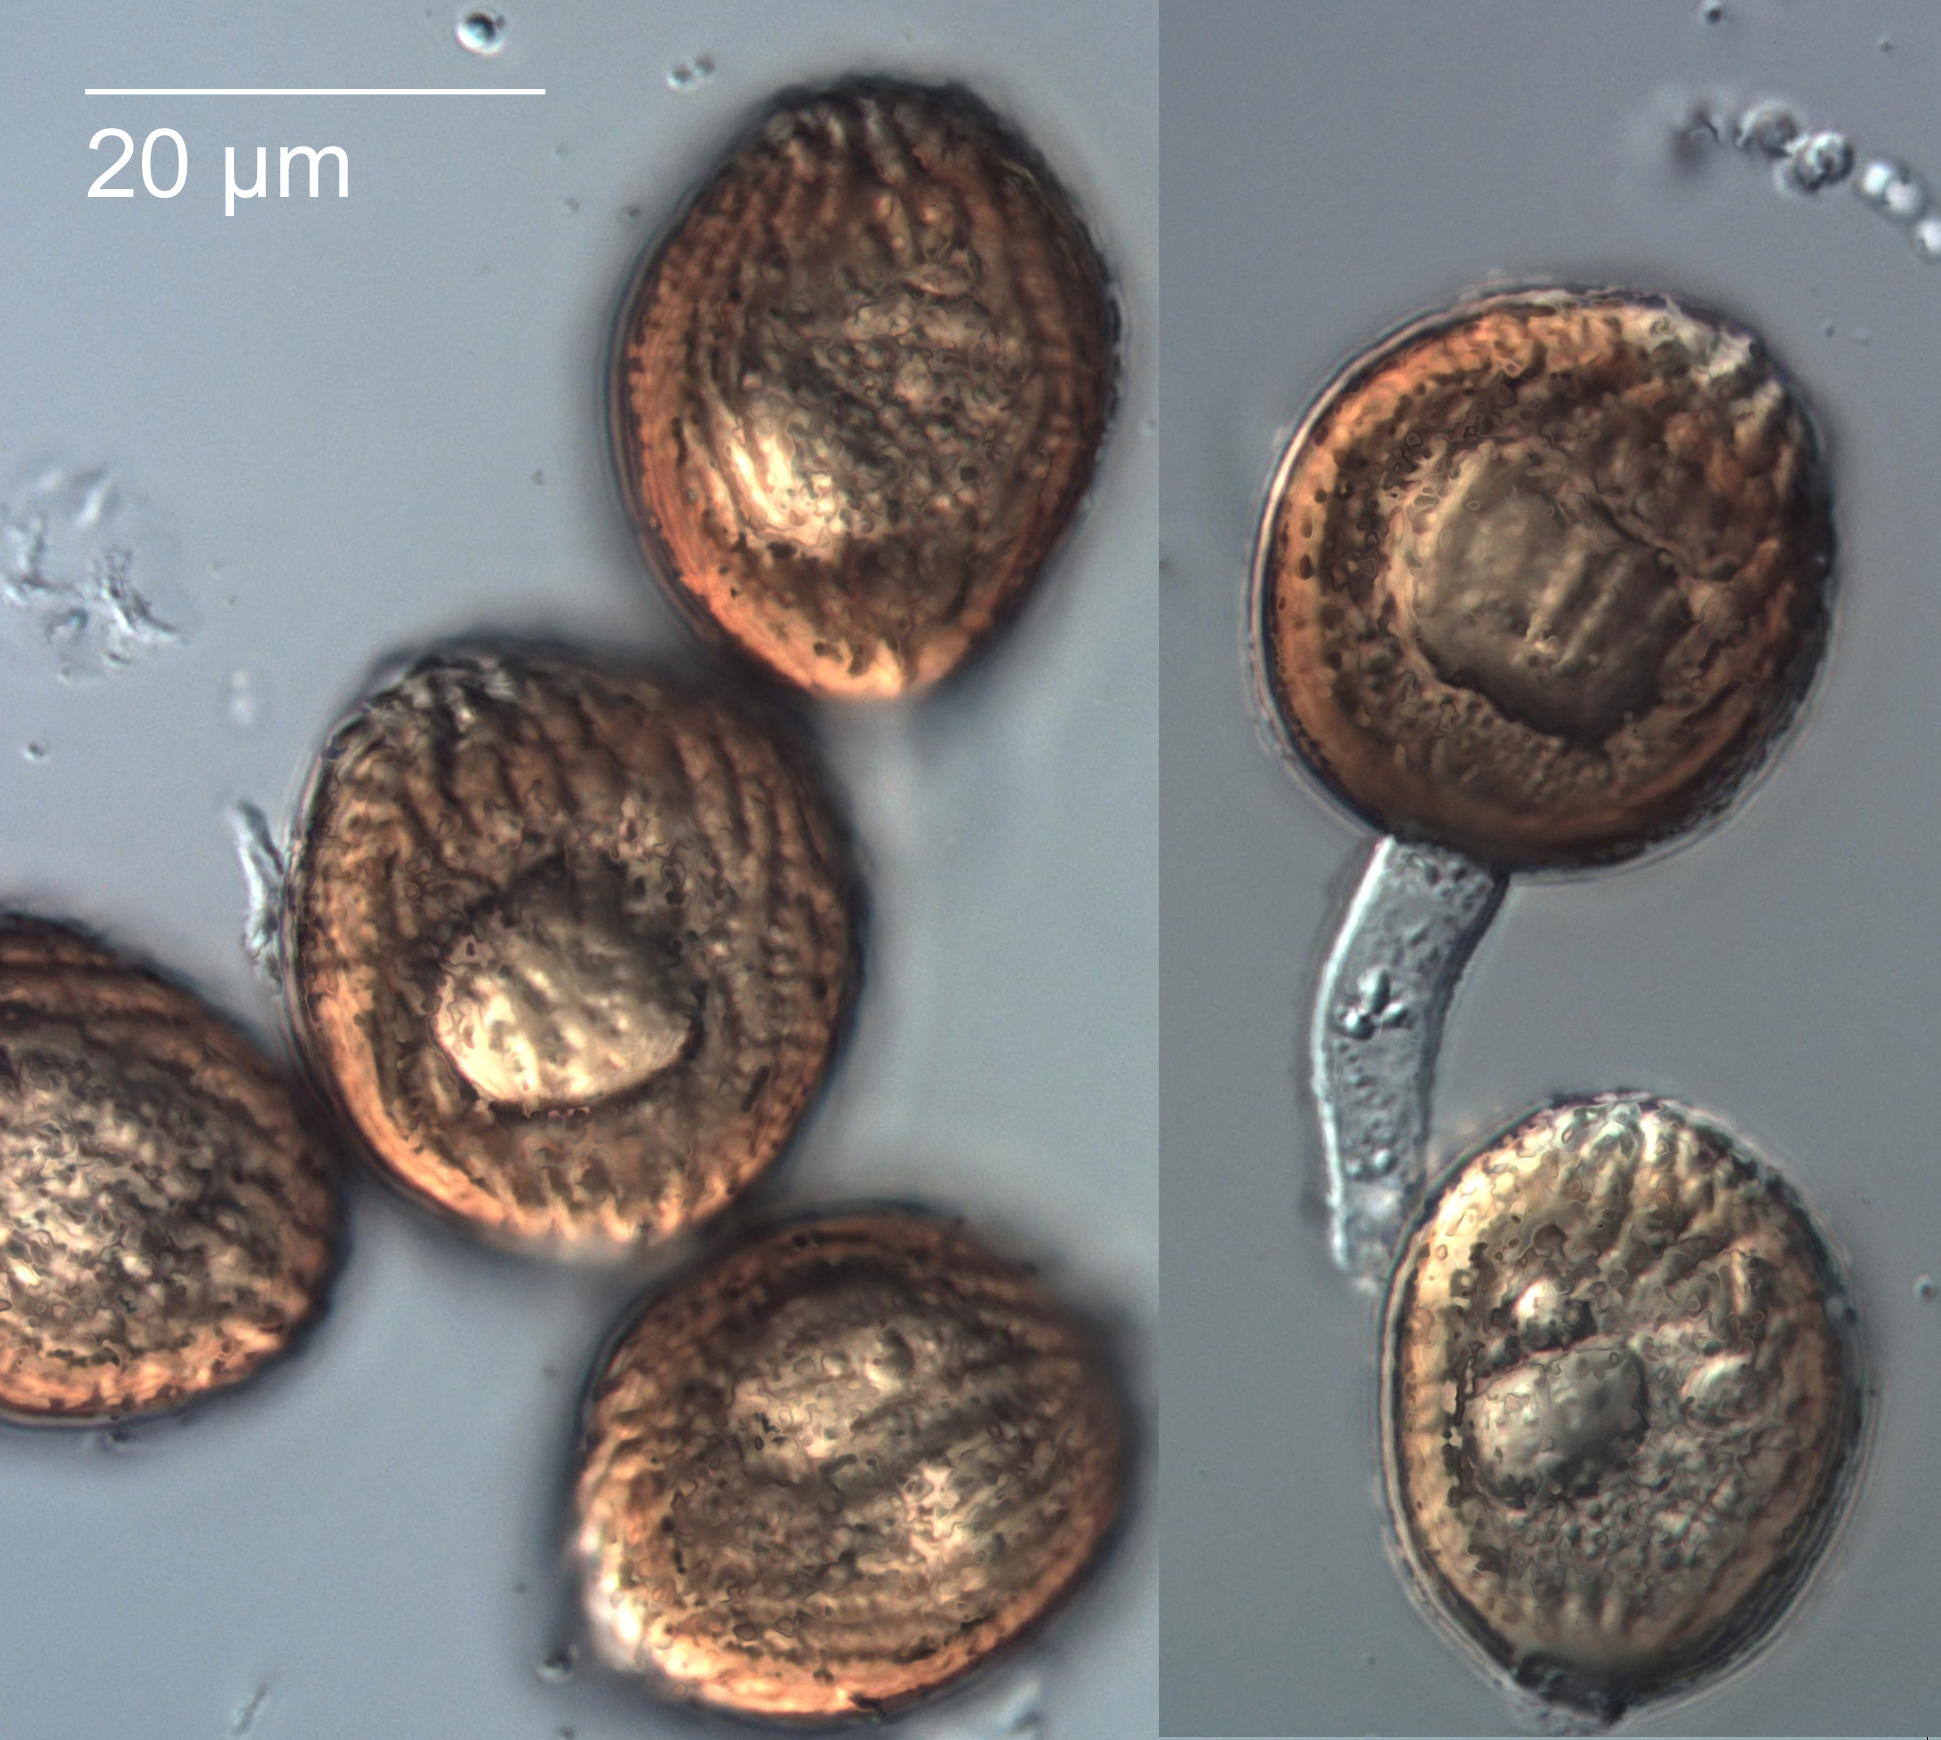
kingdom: Fungi
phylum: Basidiomycota
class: Pucciniomycetes
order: Pucciniales
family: Pucciniaceae
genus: Uromyces
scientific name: Uromyces edwardsiae
